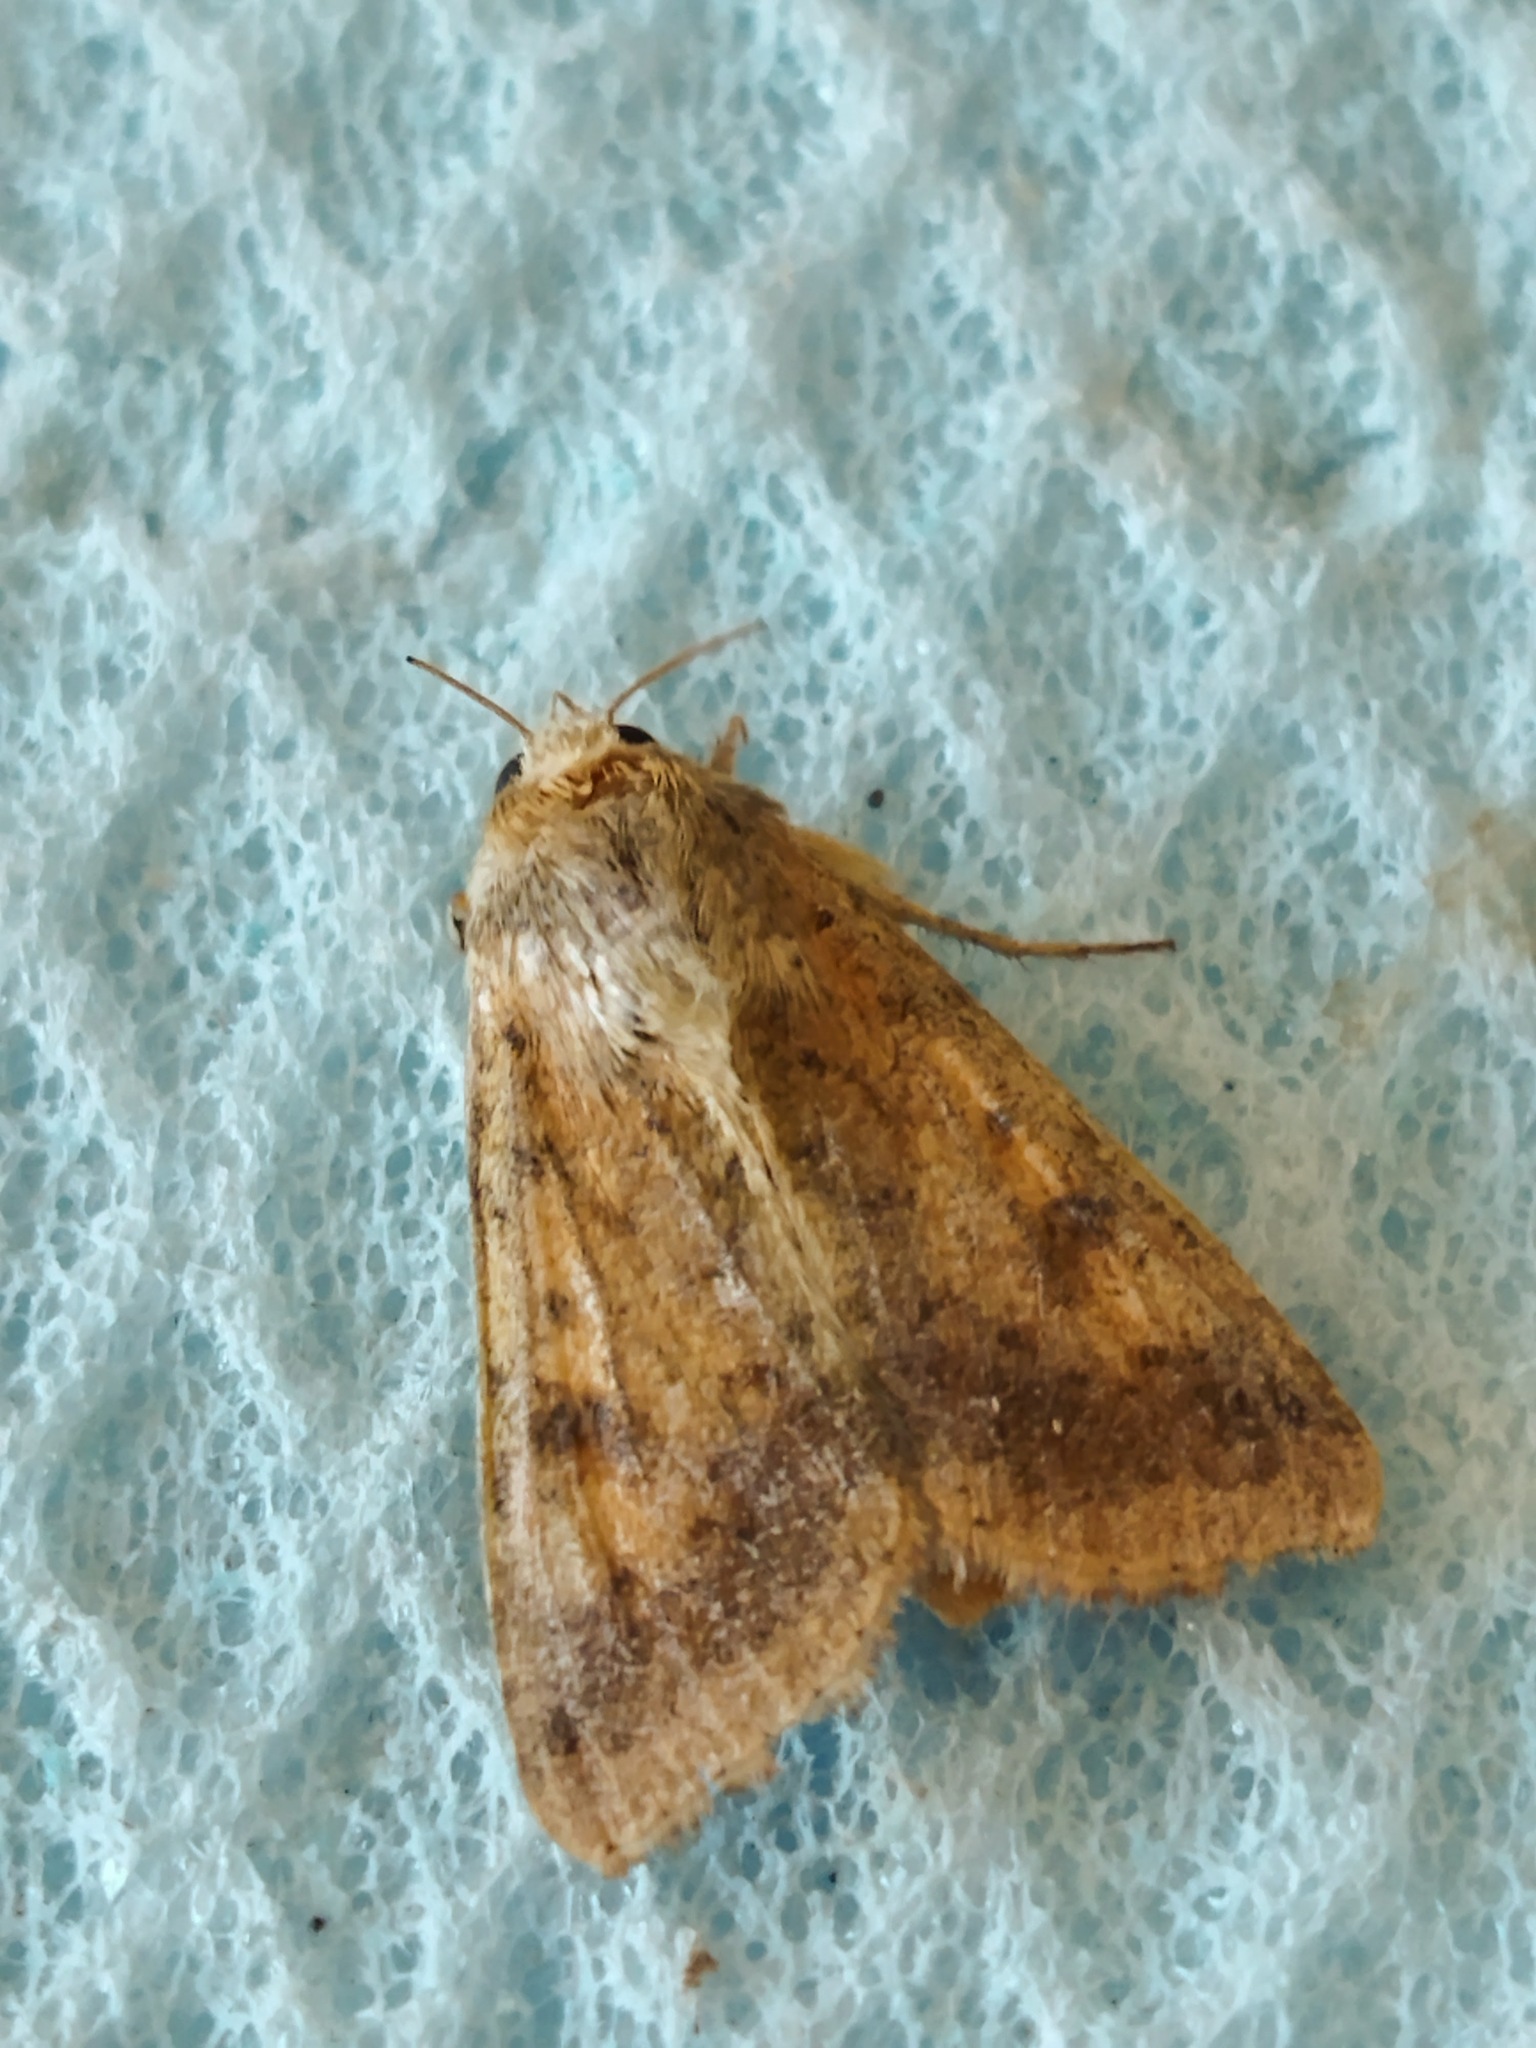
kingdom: Animalia
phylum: Arthropoda
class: Insecta
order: Lepidoptera
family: Noctuidae
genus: Helicoverpa
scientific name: Helicoverpa armigera
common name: Cotton bollworm
